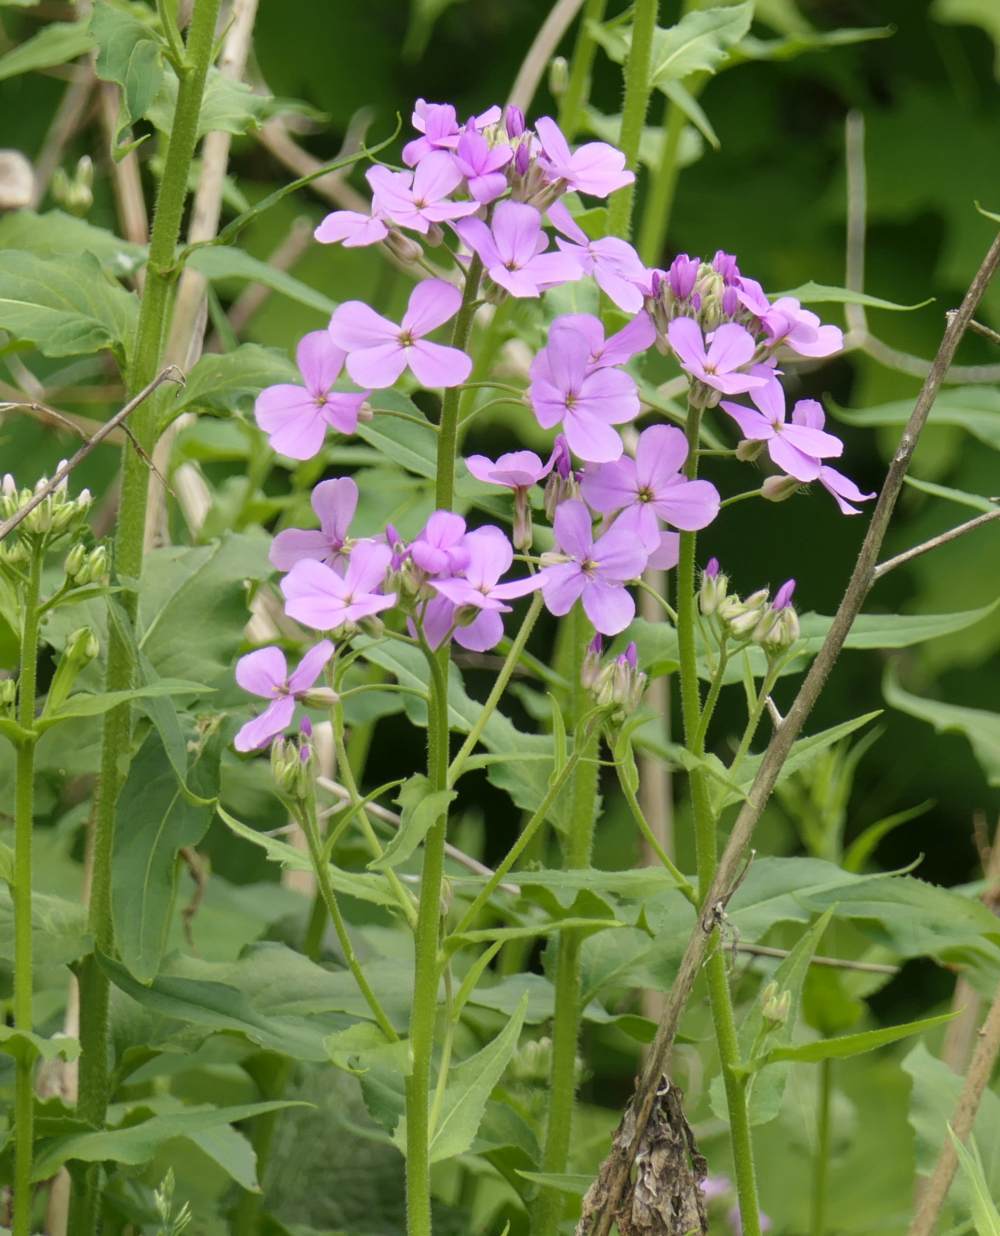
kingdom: Plantae
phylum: Tracheophyta
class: Magnoliopsida
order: Brassicales
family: Brassicaceae
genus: Hesperis
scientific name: Hesperis matronalis
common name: Dame's-violet
